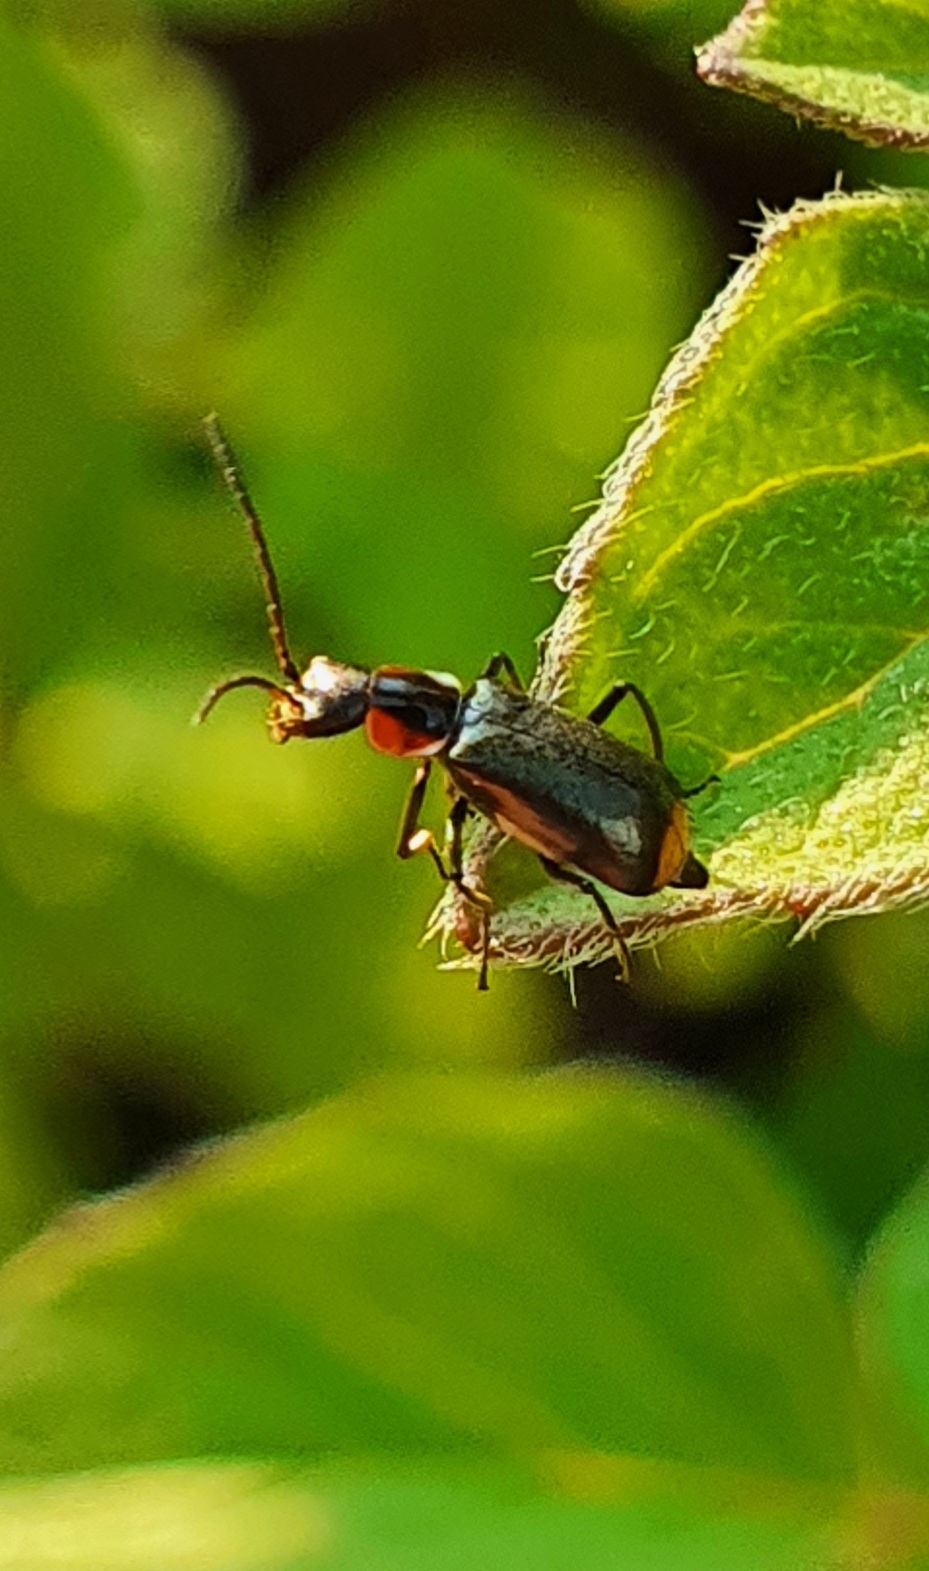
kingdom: Animalia
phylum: Arthropoda
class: Insecta
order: Coleoptera
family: Malachiidae
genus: Attalus
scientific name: Attalus minimus
